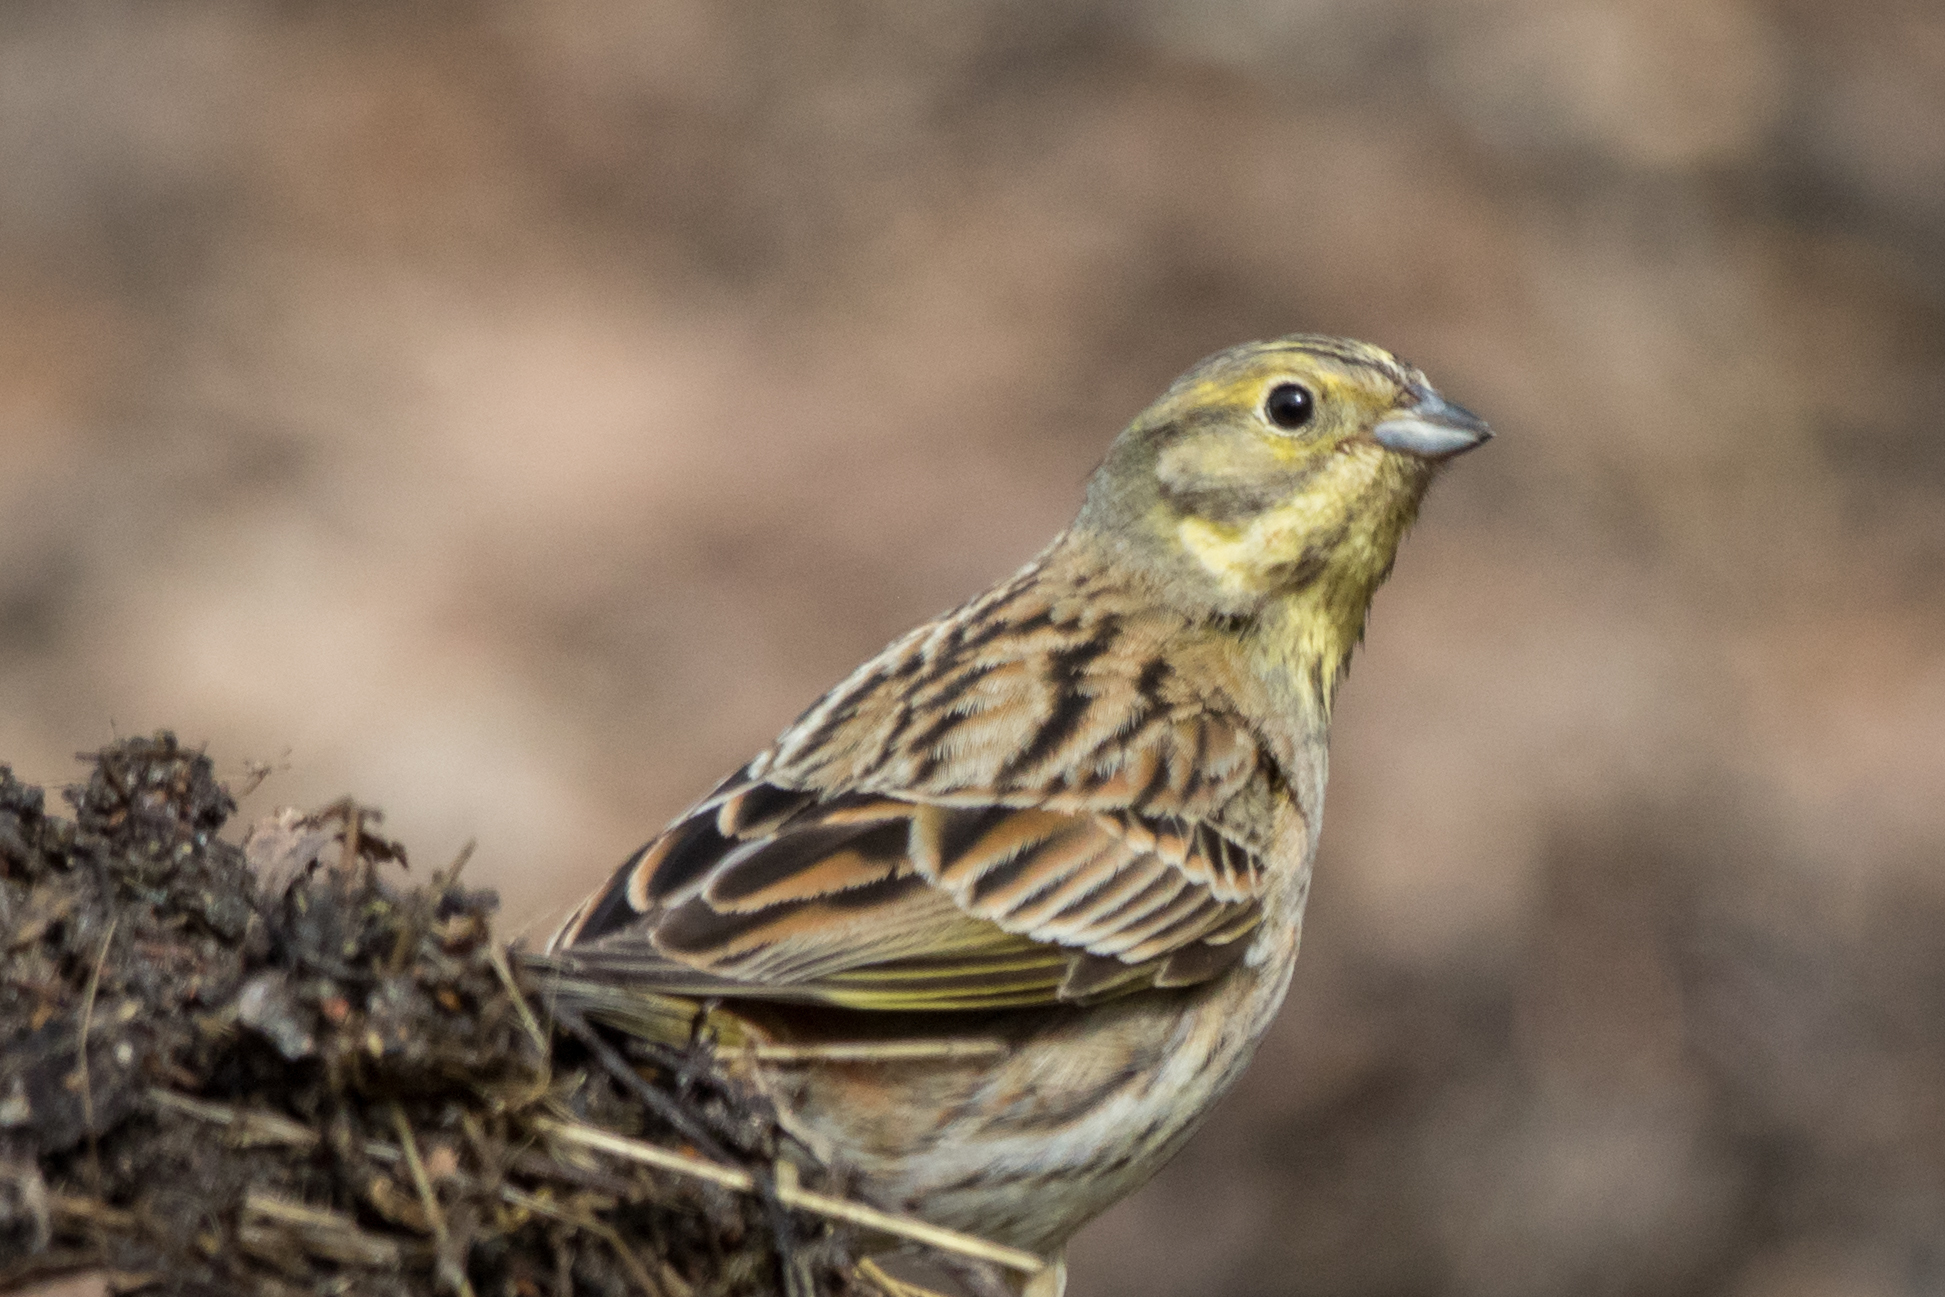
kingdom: Animalia
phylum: Chordata
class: Aves
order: Passeriformes
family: Emberizidae
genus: Emberiza
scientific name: Emberiza citrinella
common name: Yellowhammer
